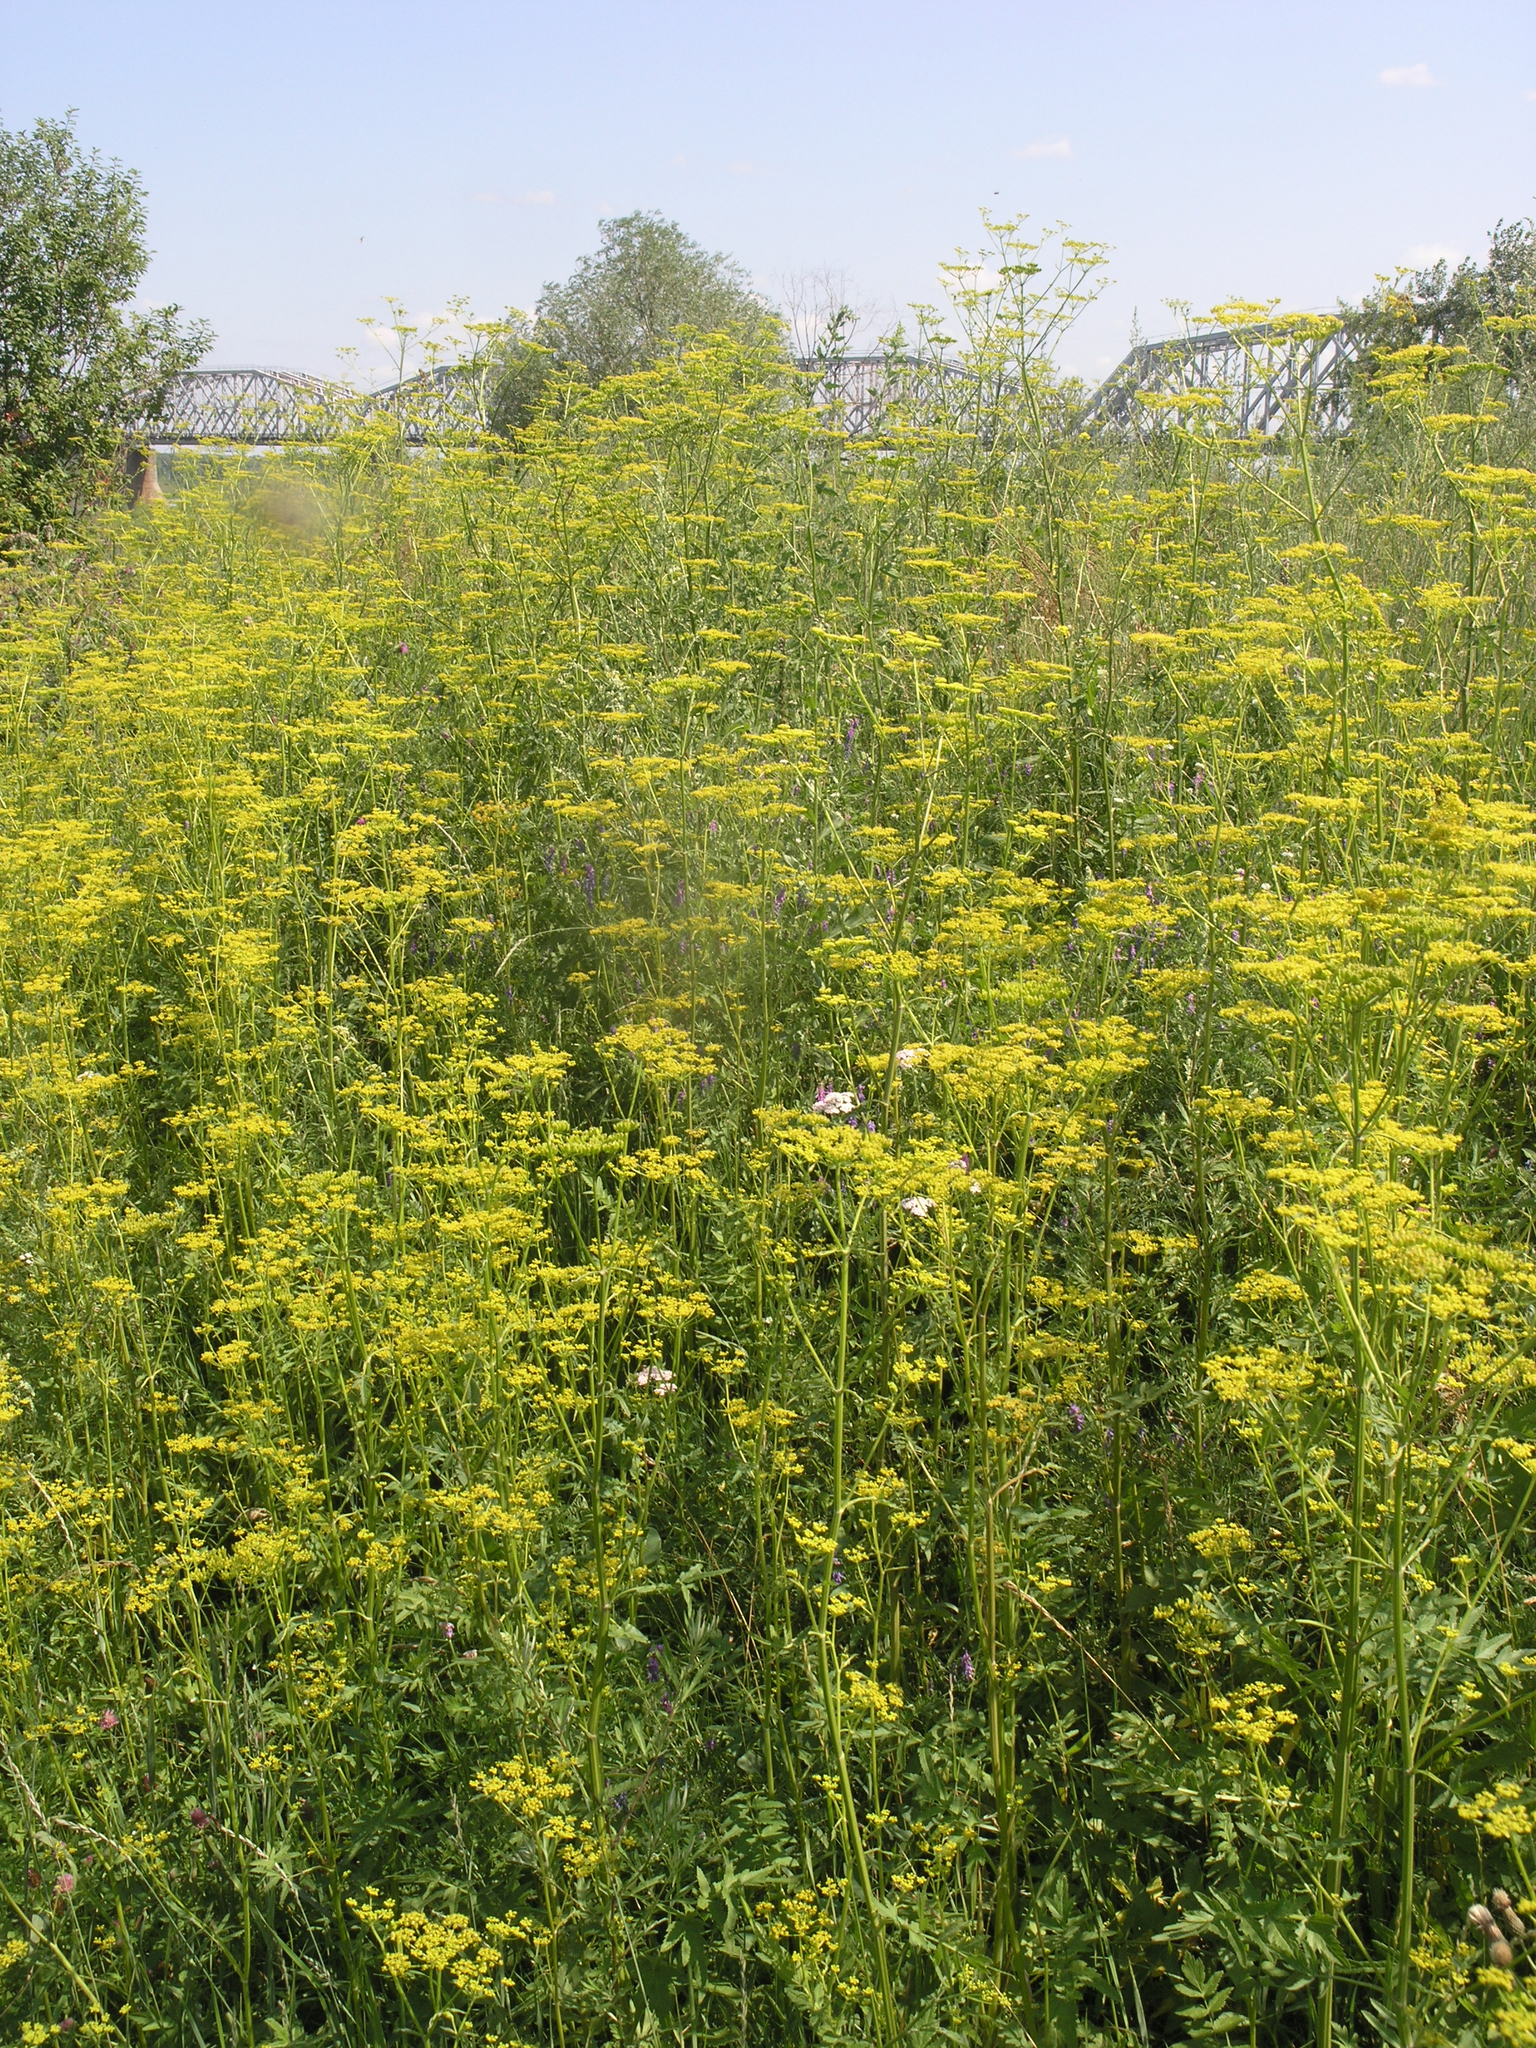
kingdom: Plantae
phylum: Tracheophyta
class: Magnoliopsida
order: Apiales
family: Apiaceae
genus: Pastinaca
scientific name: Pastinaca sativa
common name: Wild parsnip
